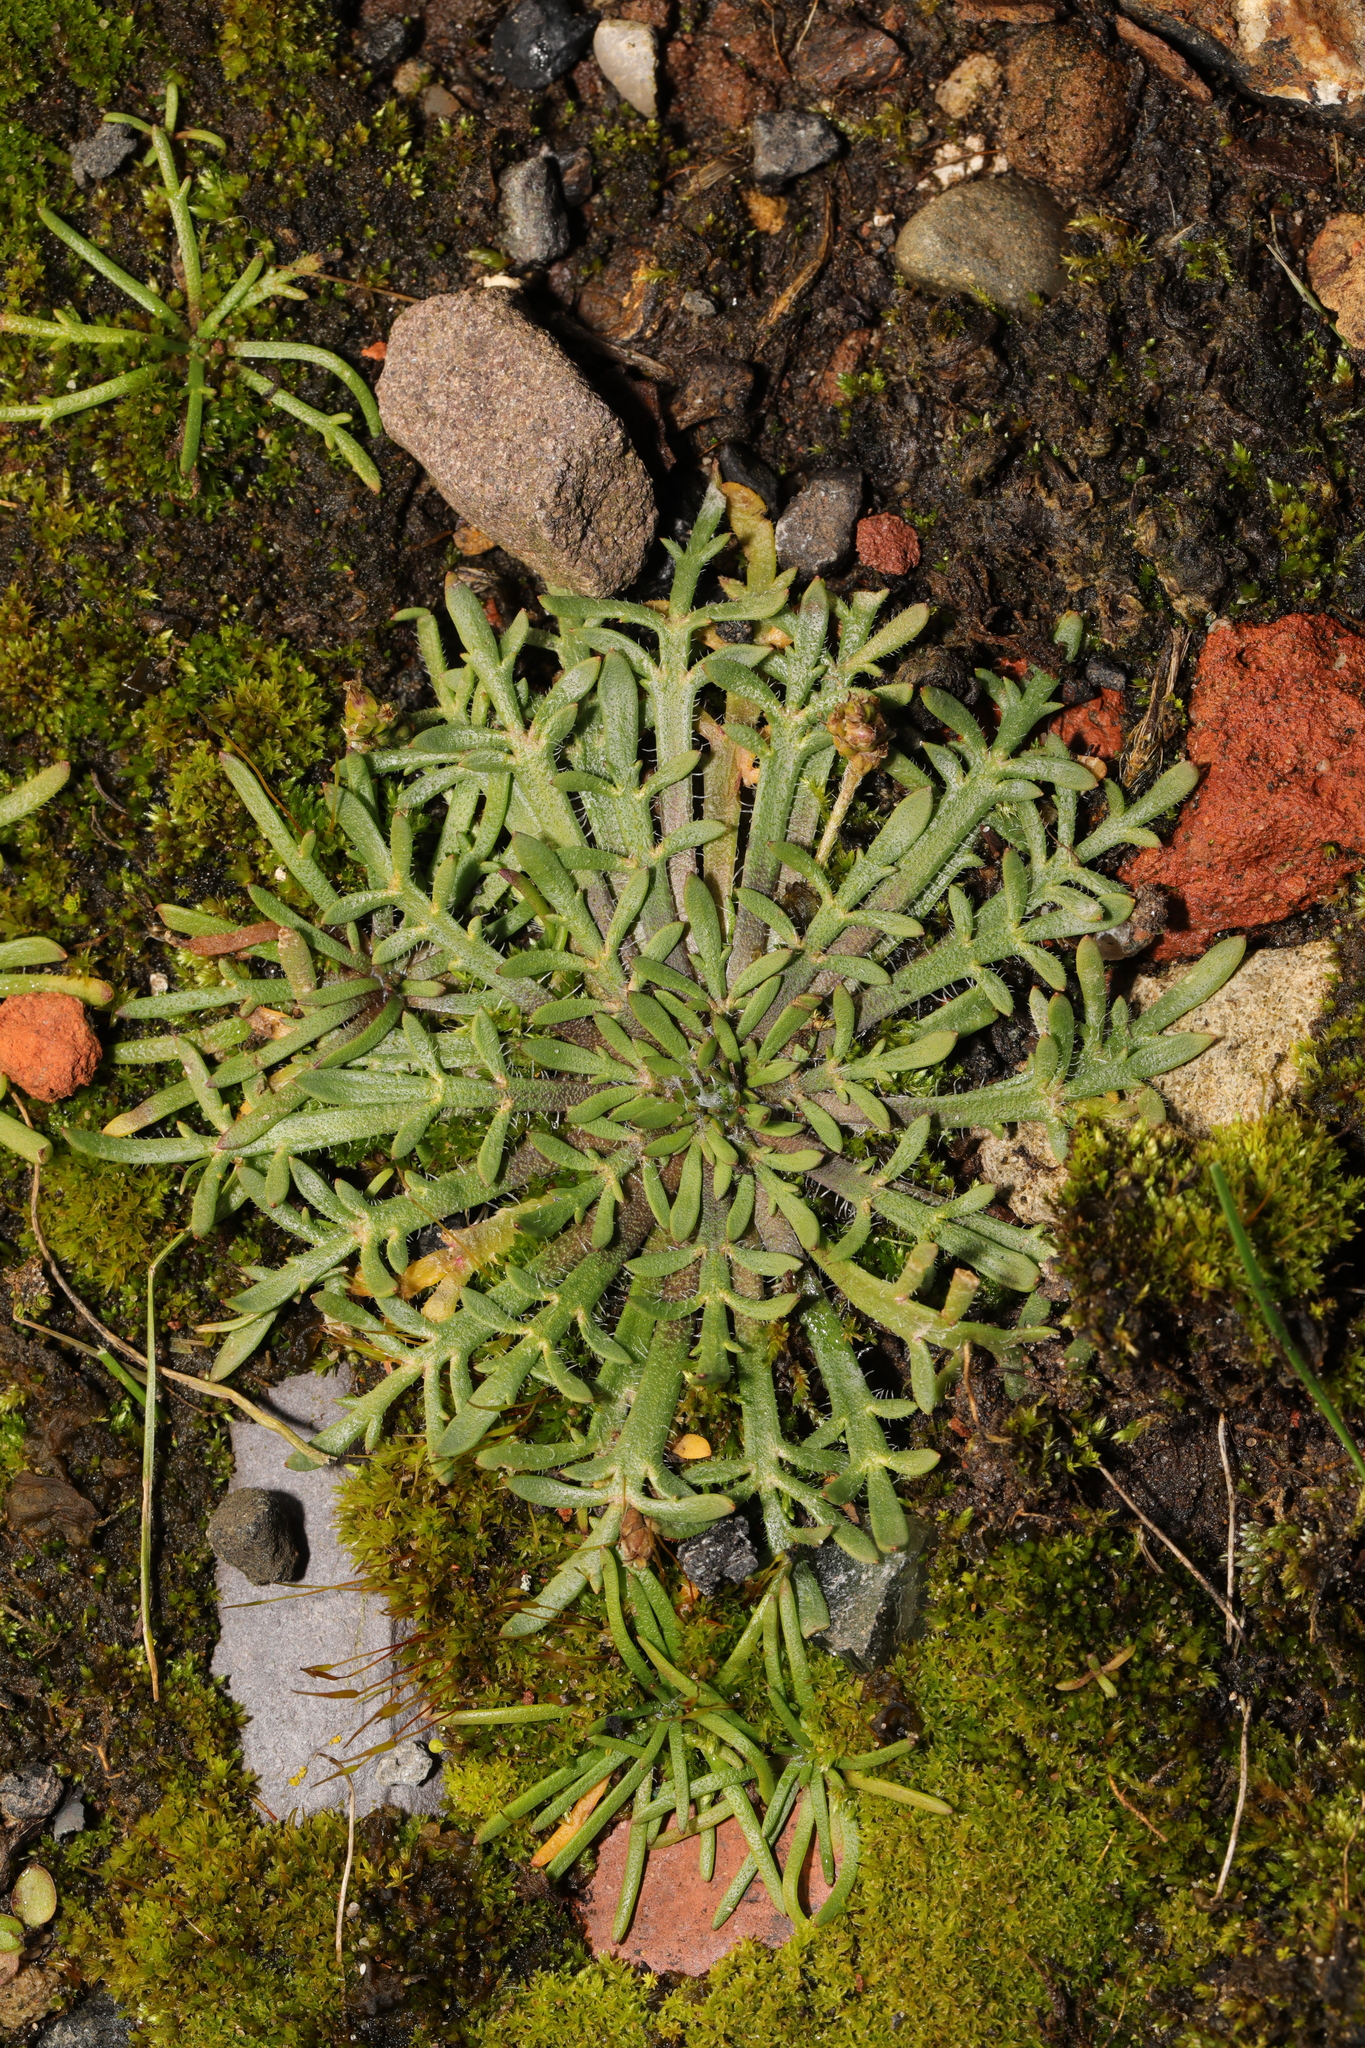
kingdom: Plantae
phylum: Tracheophyta
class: Magnoliopsida
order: Lamiales
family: Plantaginaceae
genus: Plantago
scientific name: Plantago coronopus
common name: Buck's-horn plantain
